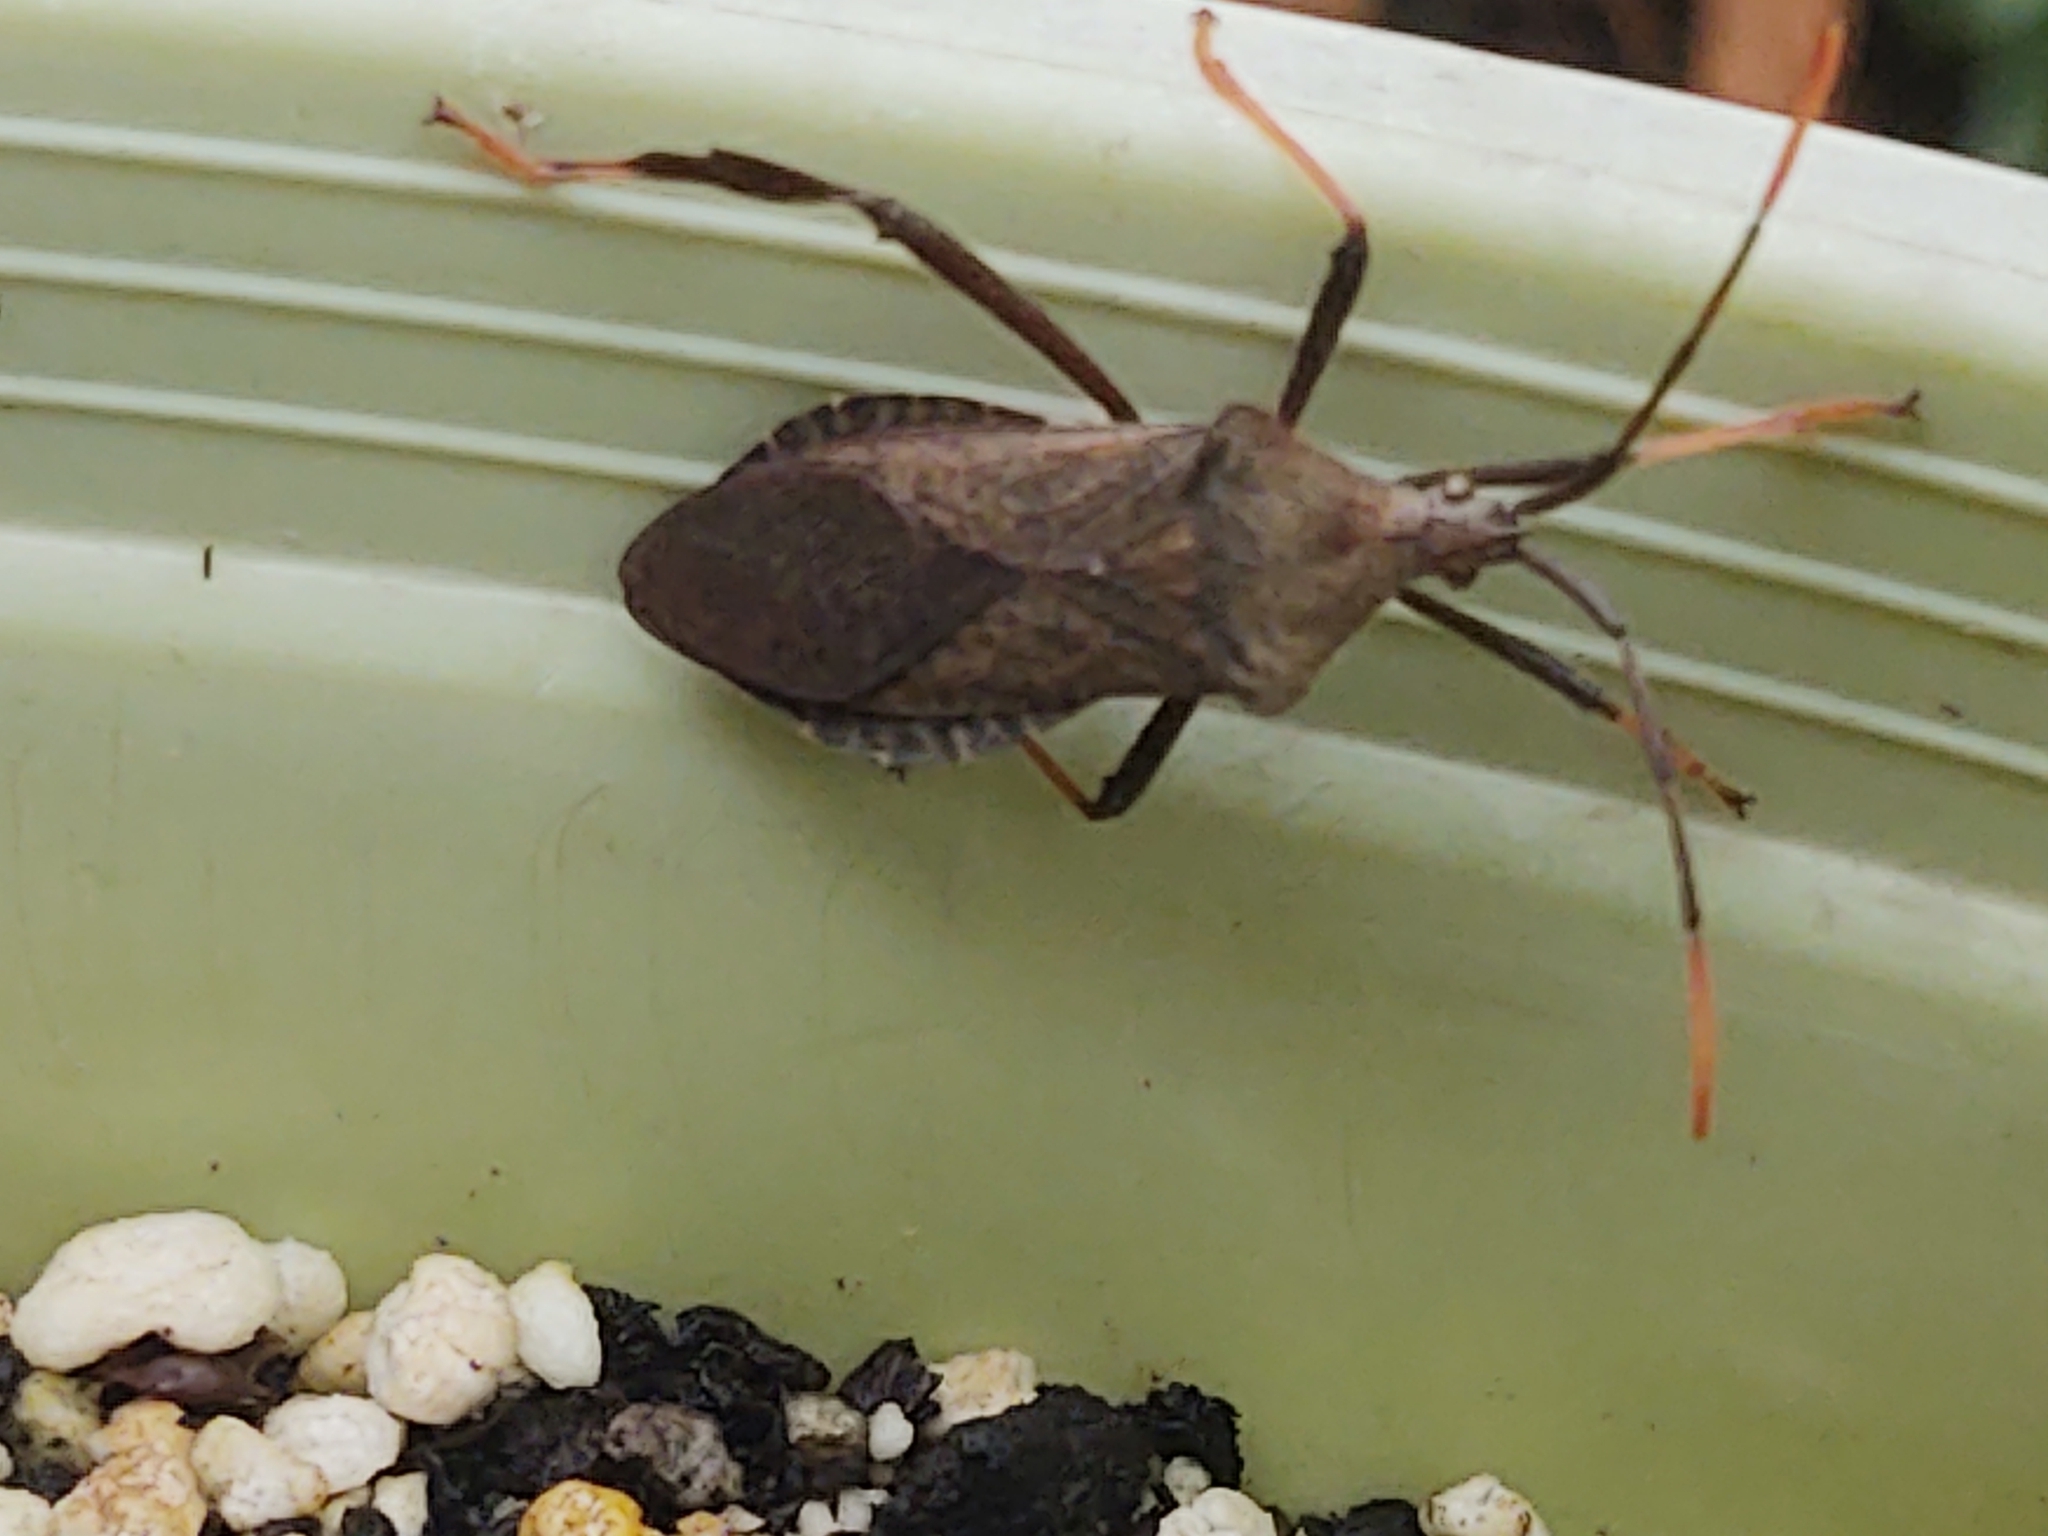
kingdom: Animalia
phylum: Arthropoda
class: Insecta
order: Hemiptera
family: Coreidae
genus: Acanthocephala
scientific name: Acanthocephala terminalis
